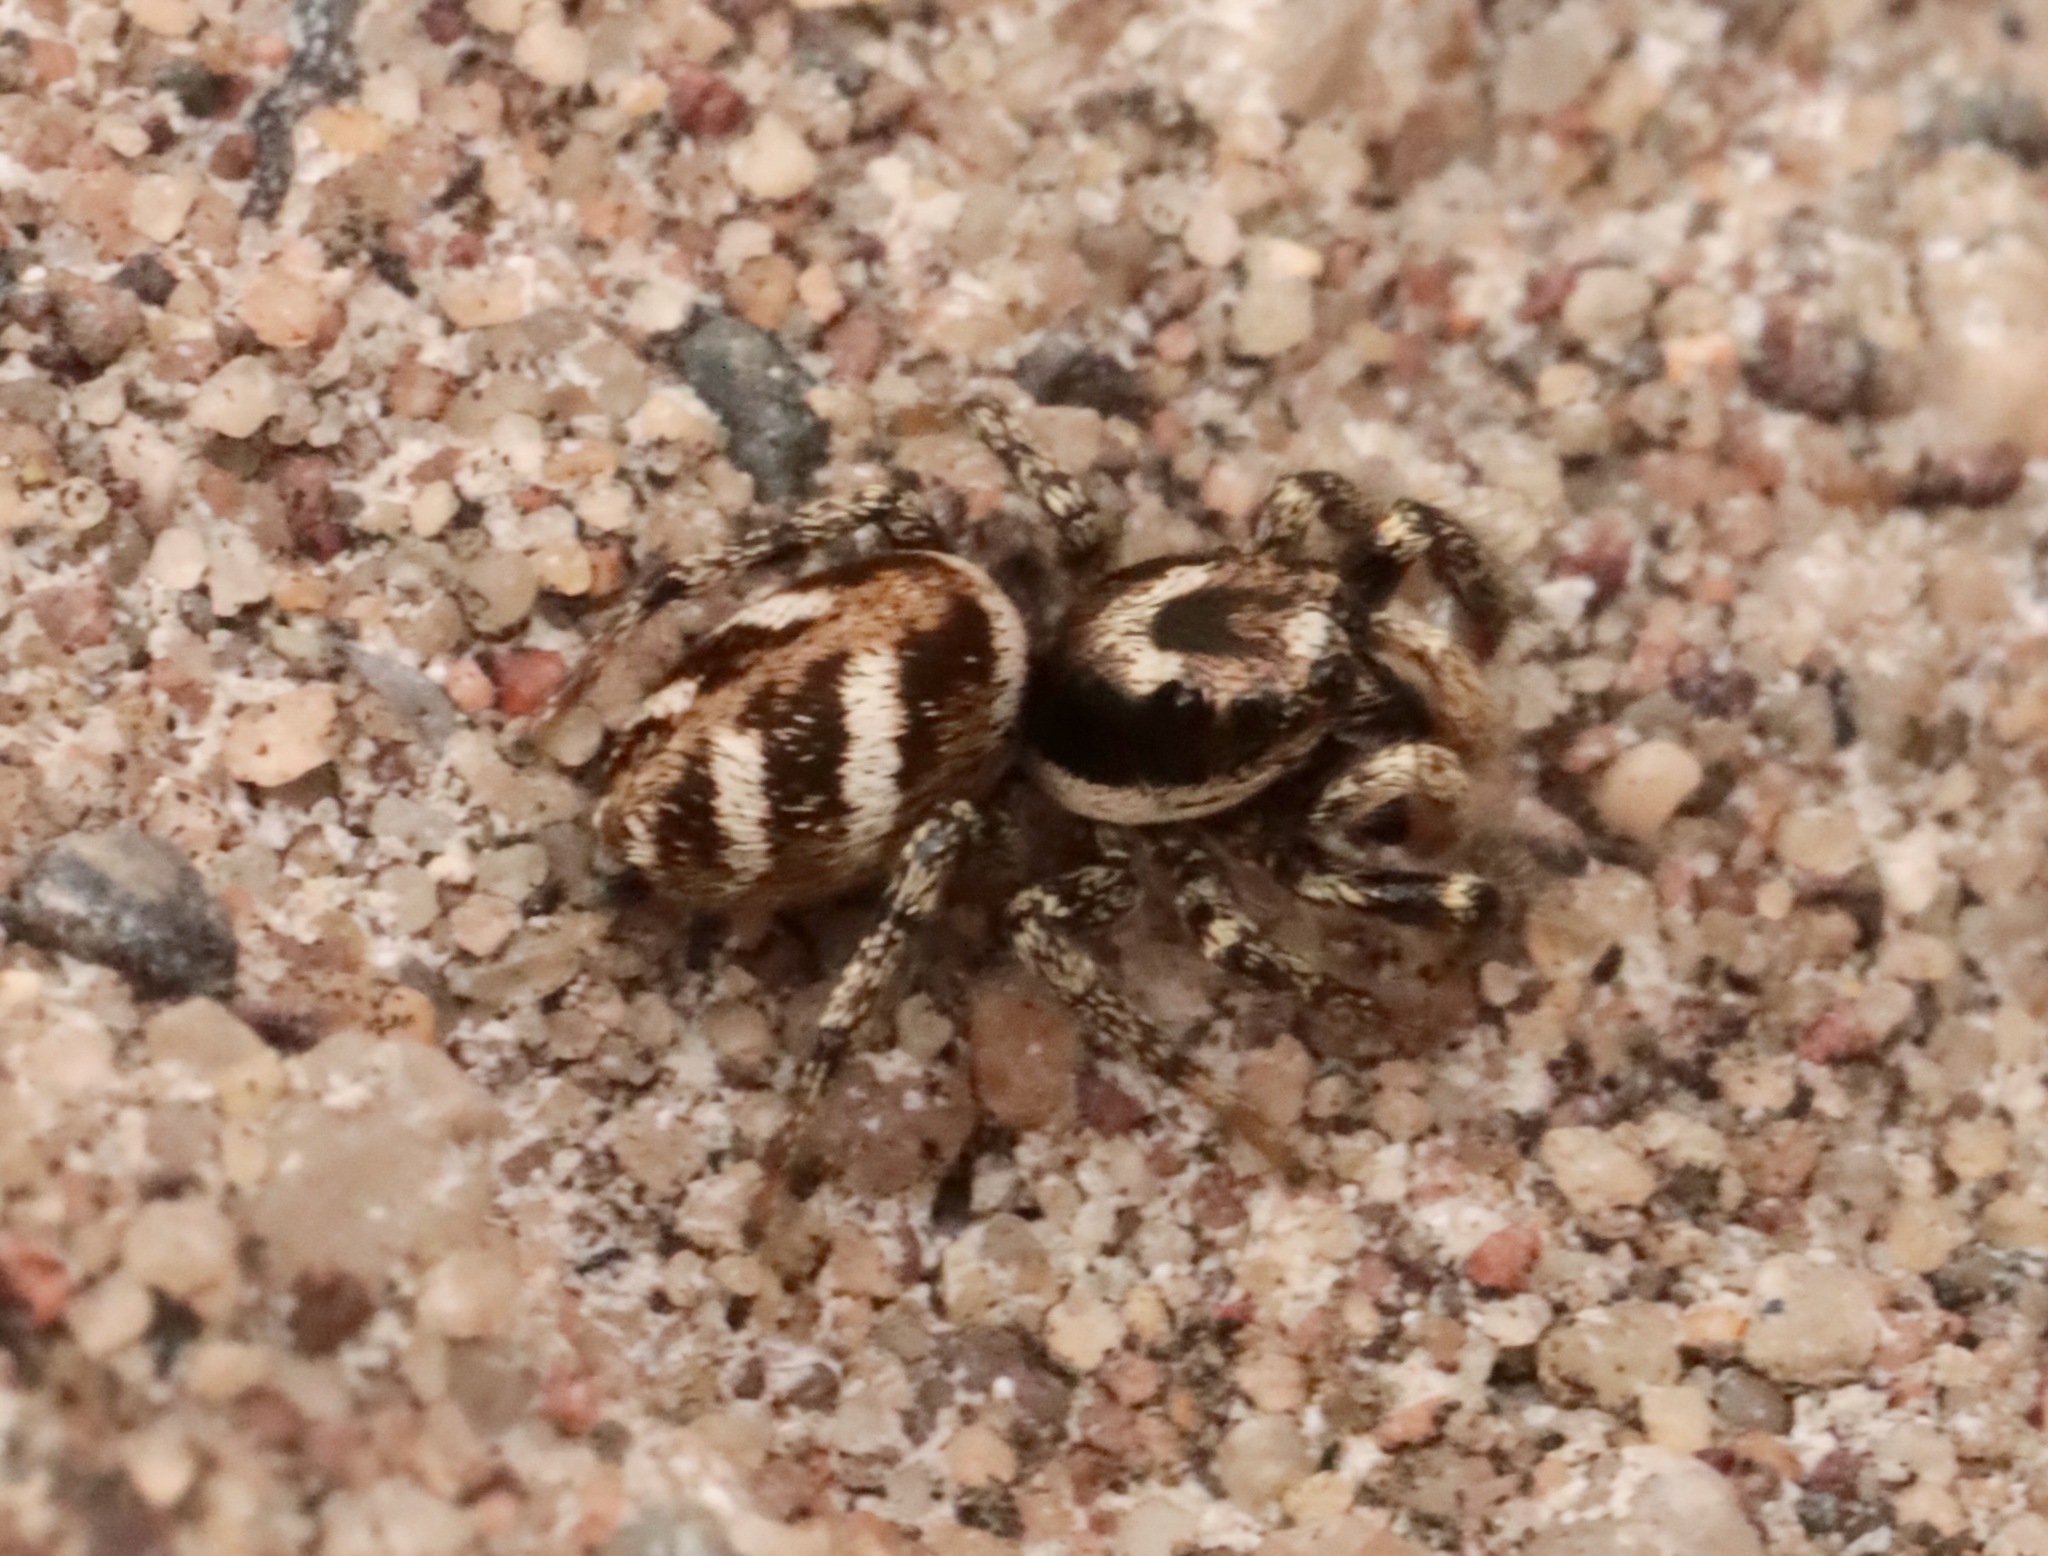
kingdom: Animalia
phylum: Arthropoda
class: Arachnida
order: Araneae
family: Salticidae
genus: Salticus
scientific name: Salticus scenicus
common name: Zebra jumper
